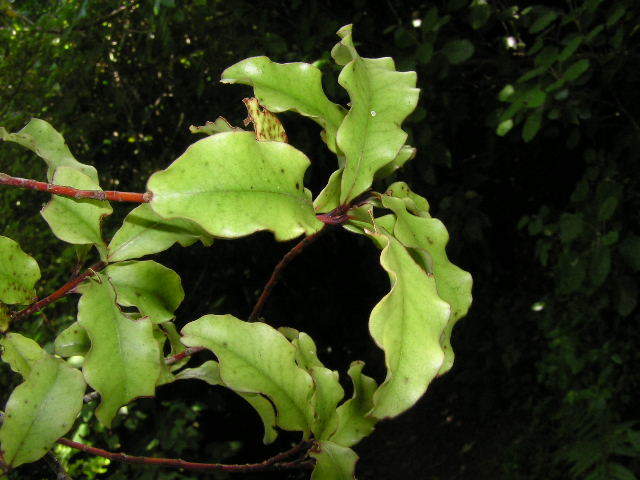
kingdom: Plantae
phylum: Tracheophyta
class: Magnoliopsida
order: Ericales
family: Primulaceae
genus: Myrsine
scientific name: Myrsine australis
